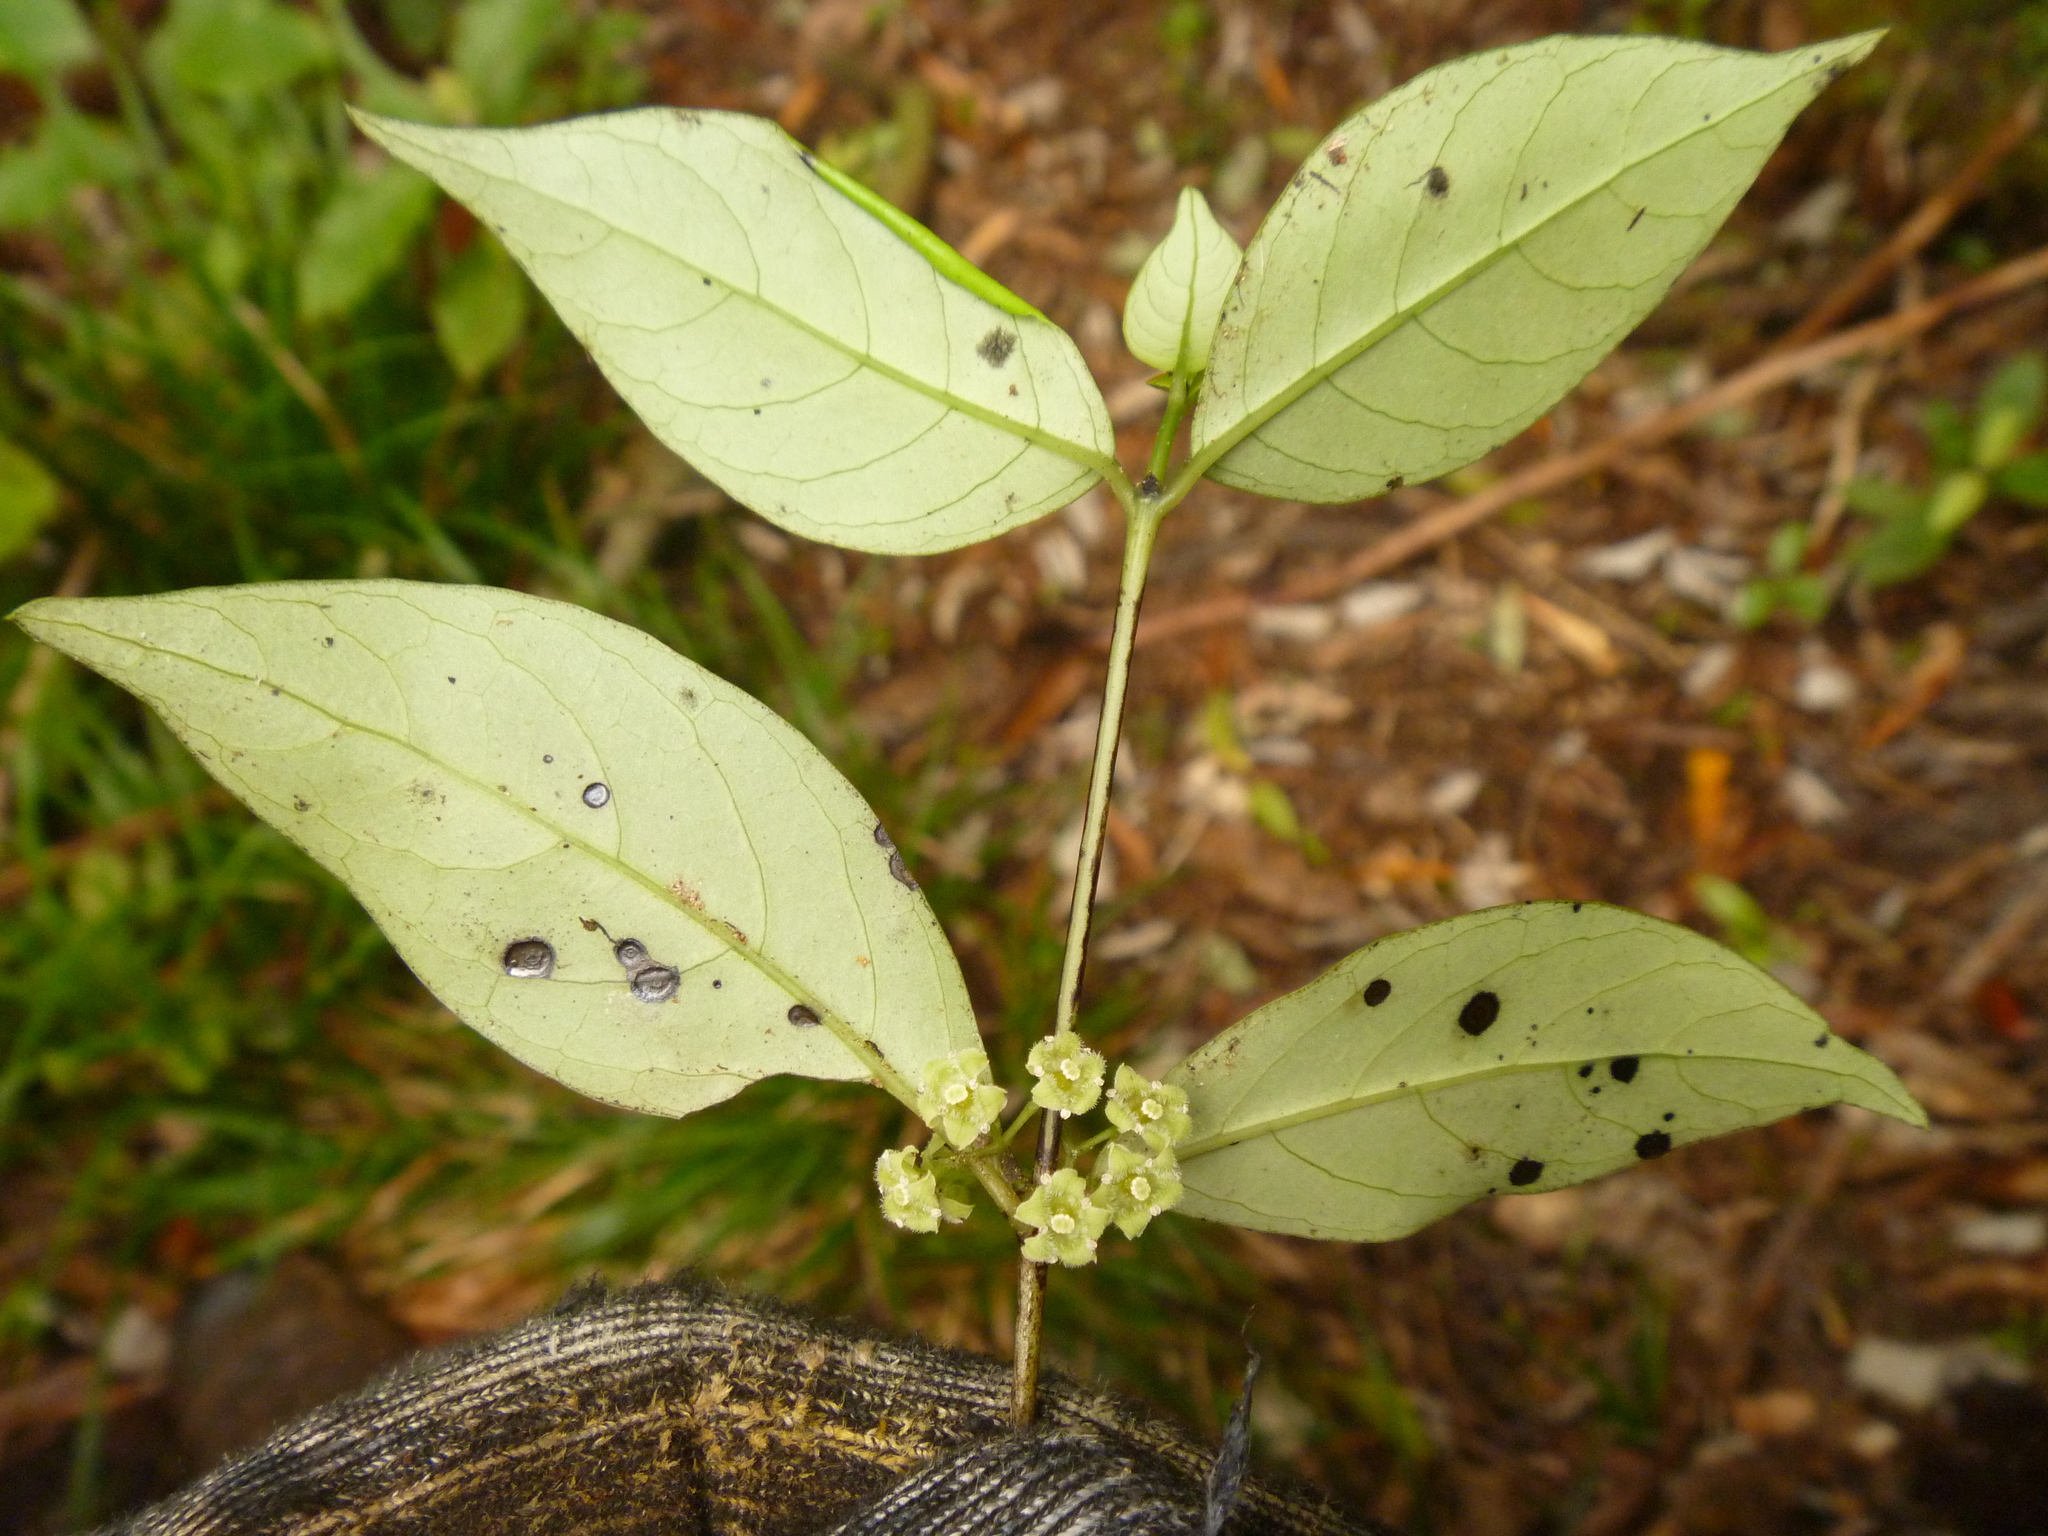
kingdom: Plantae
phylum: Tracheophyta
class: Magnoliopsida
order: Gentianales
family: Loganiaceae
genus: Geniostoma
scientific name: Geniostoma ligustrifolium
